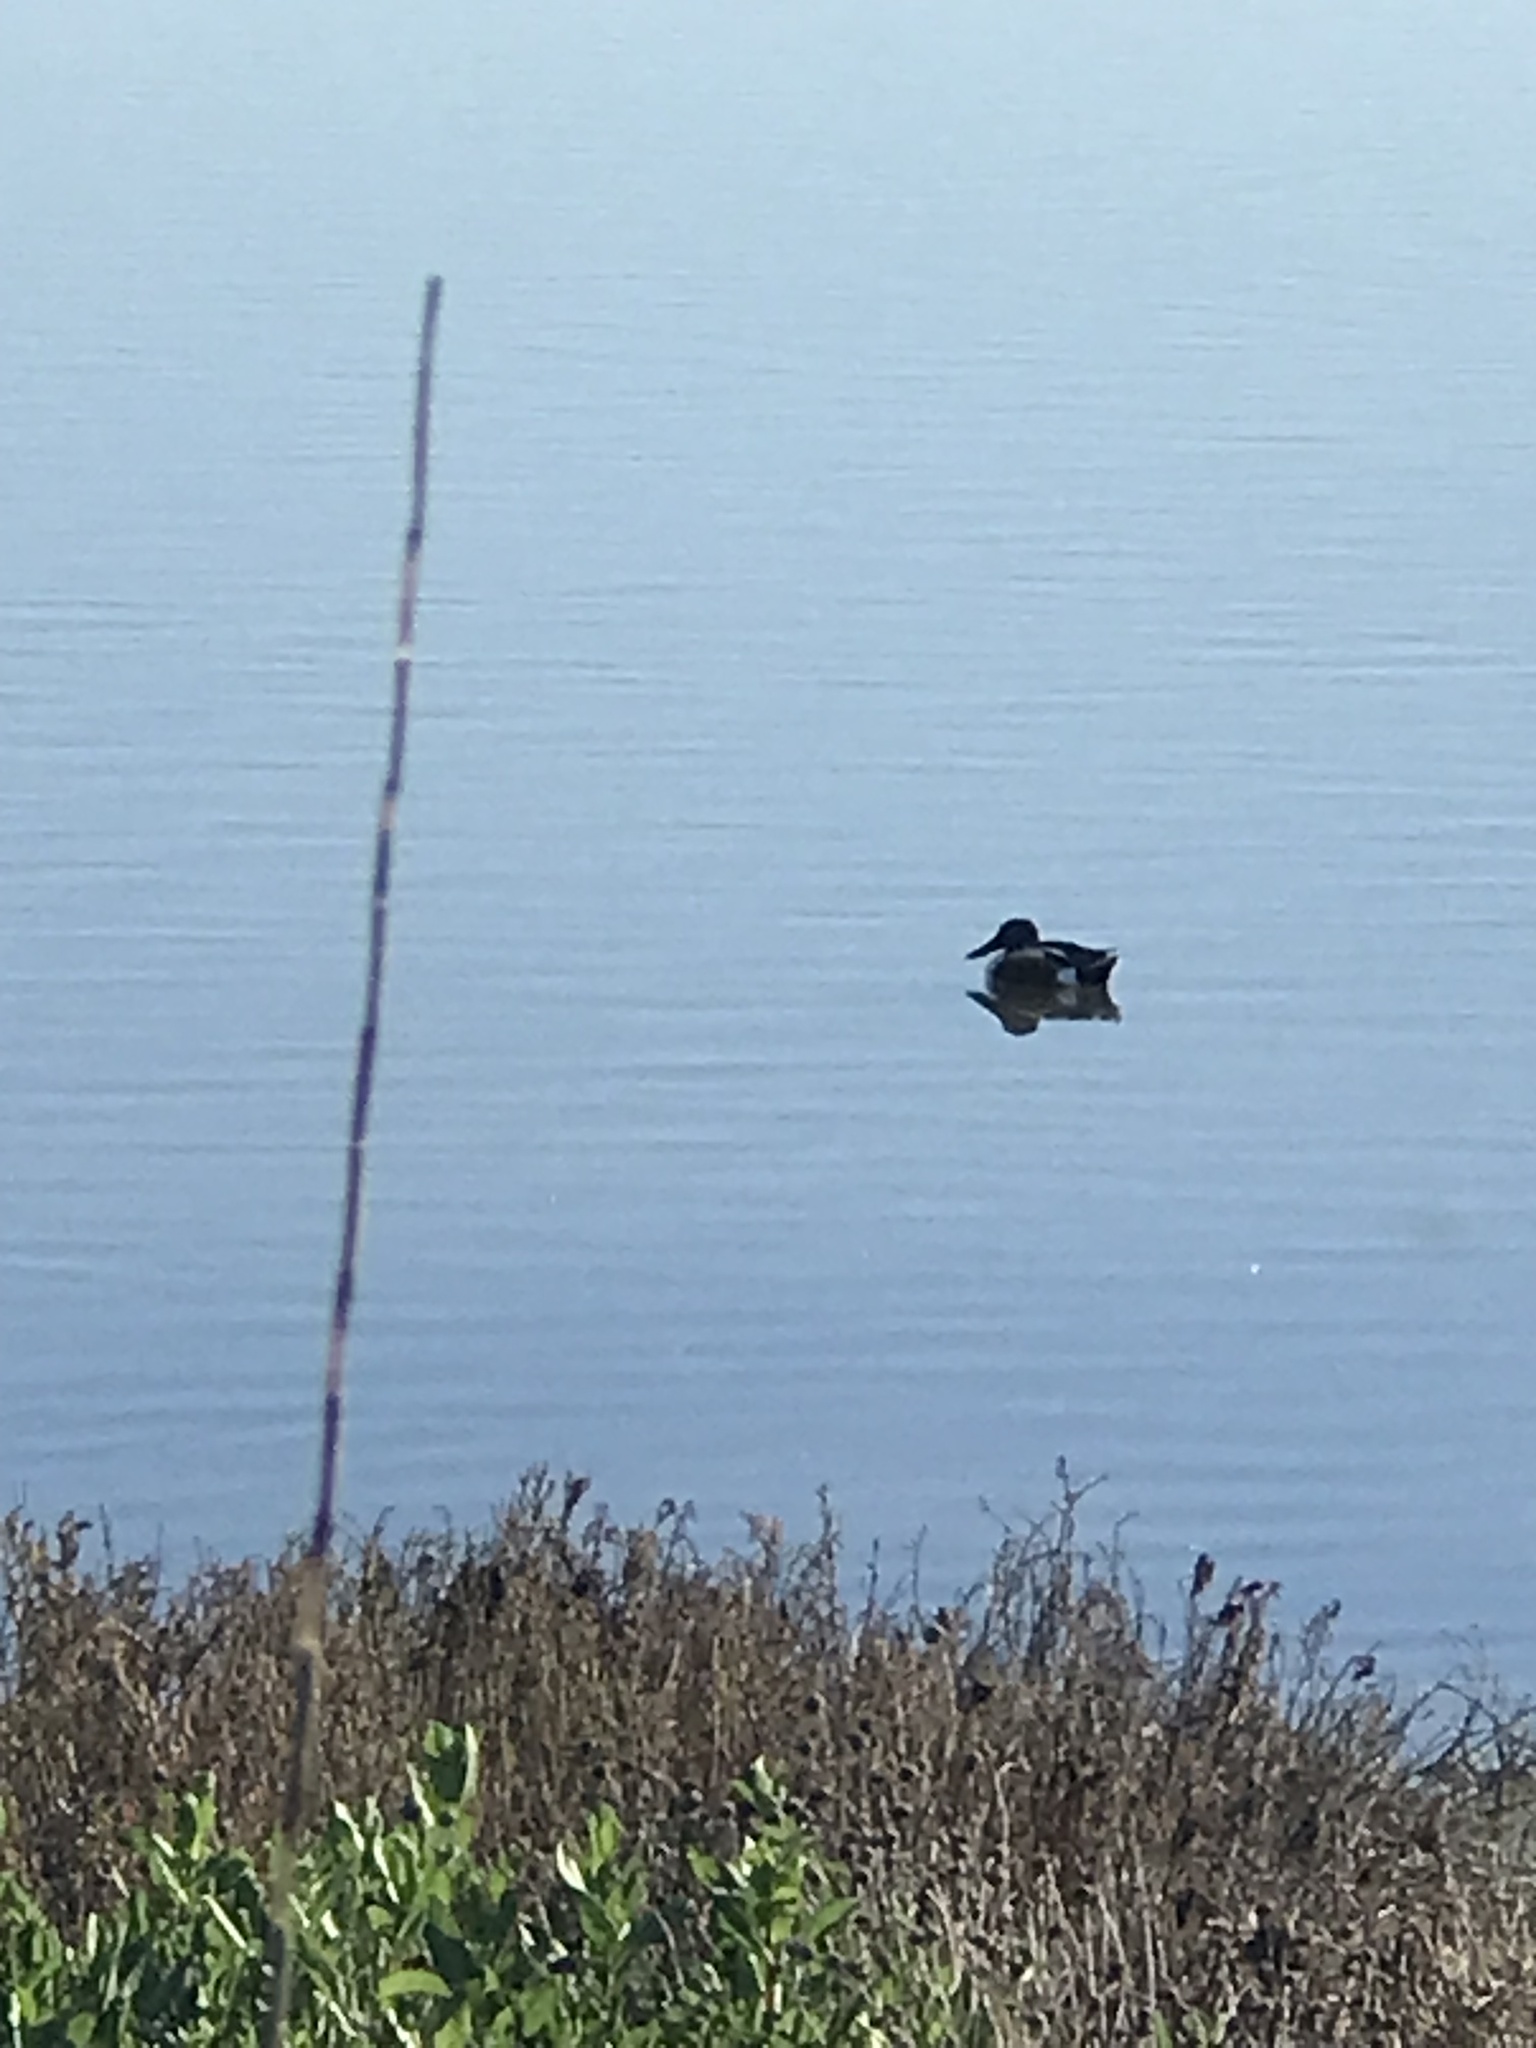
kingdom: Animalia
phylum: Chordata
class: Aves
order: Anseriformes
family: Anatidae
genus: Spatula
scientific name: Spatula clypeata
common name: Northern shoveler
